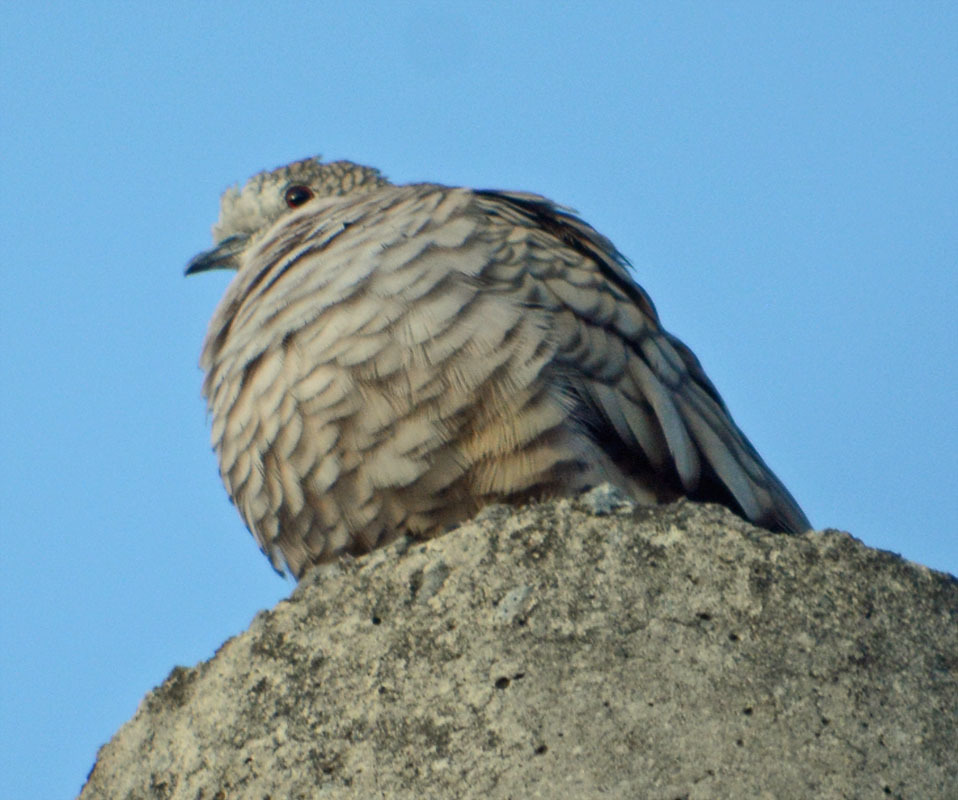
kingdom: Animalia
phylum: Chordata
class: Aves
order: Columbiformes
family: Columbidae
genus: Columbina
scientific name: Columbina inca
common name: Inca dove
